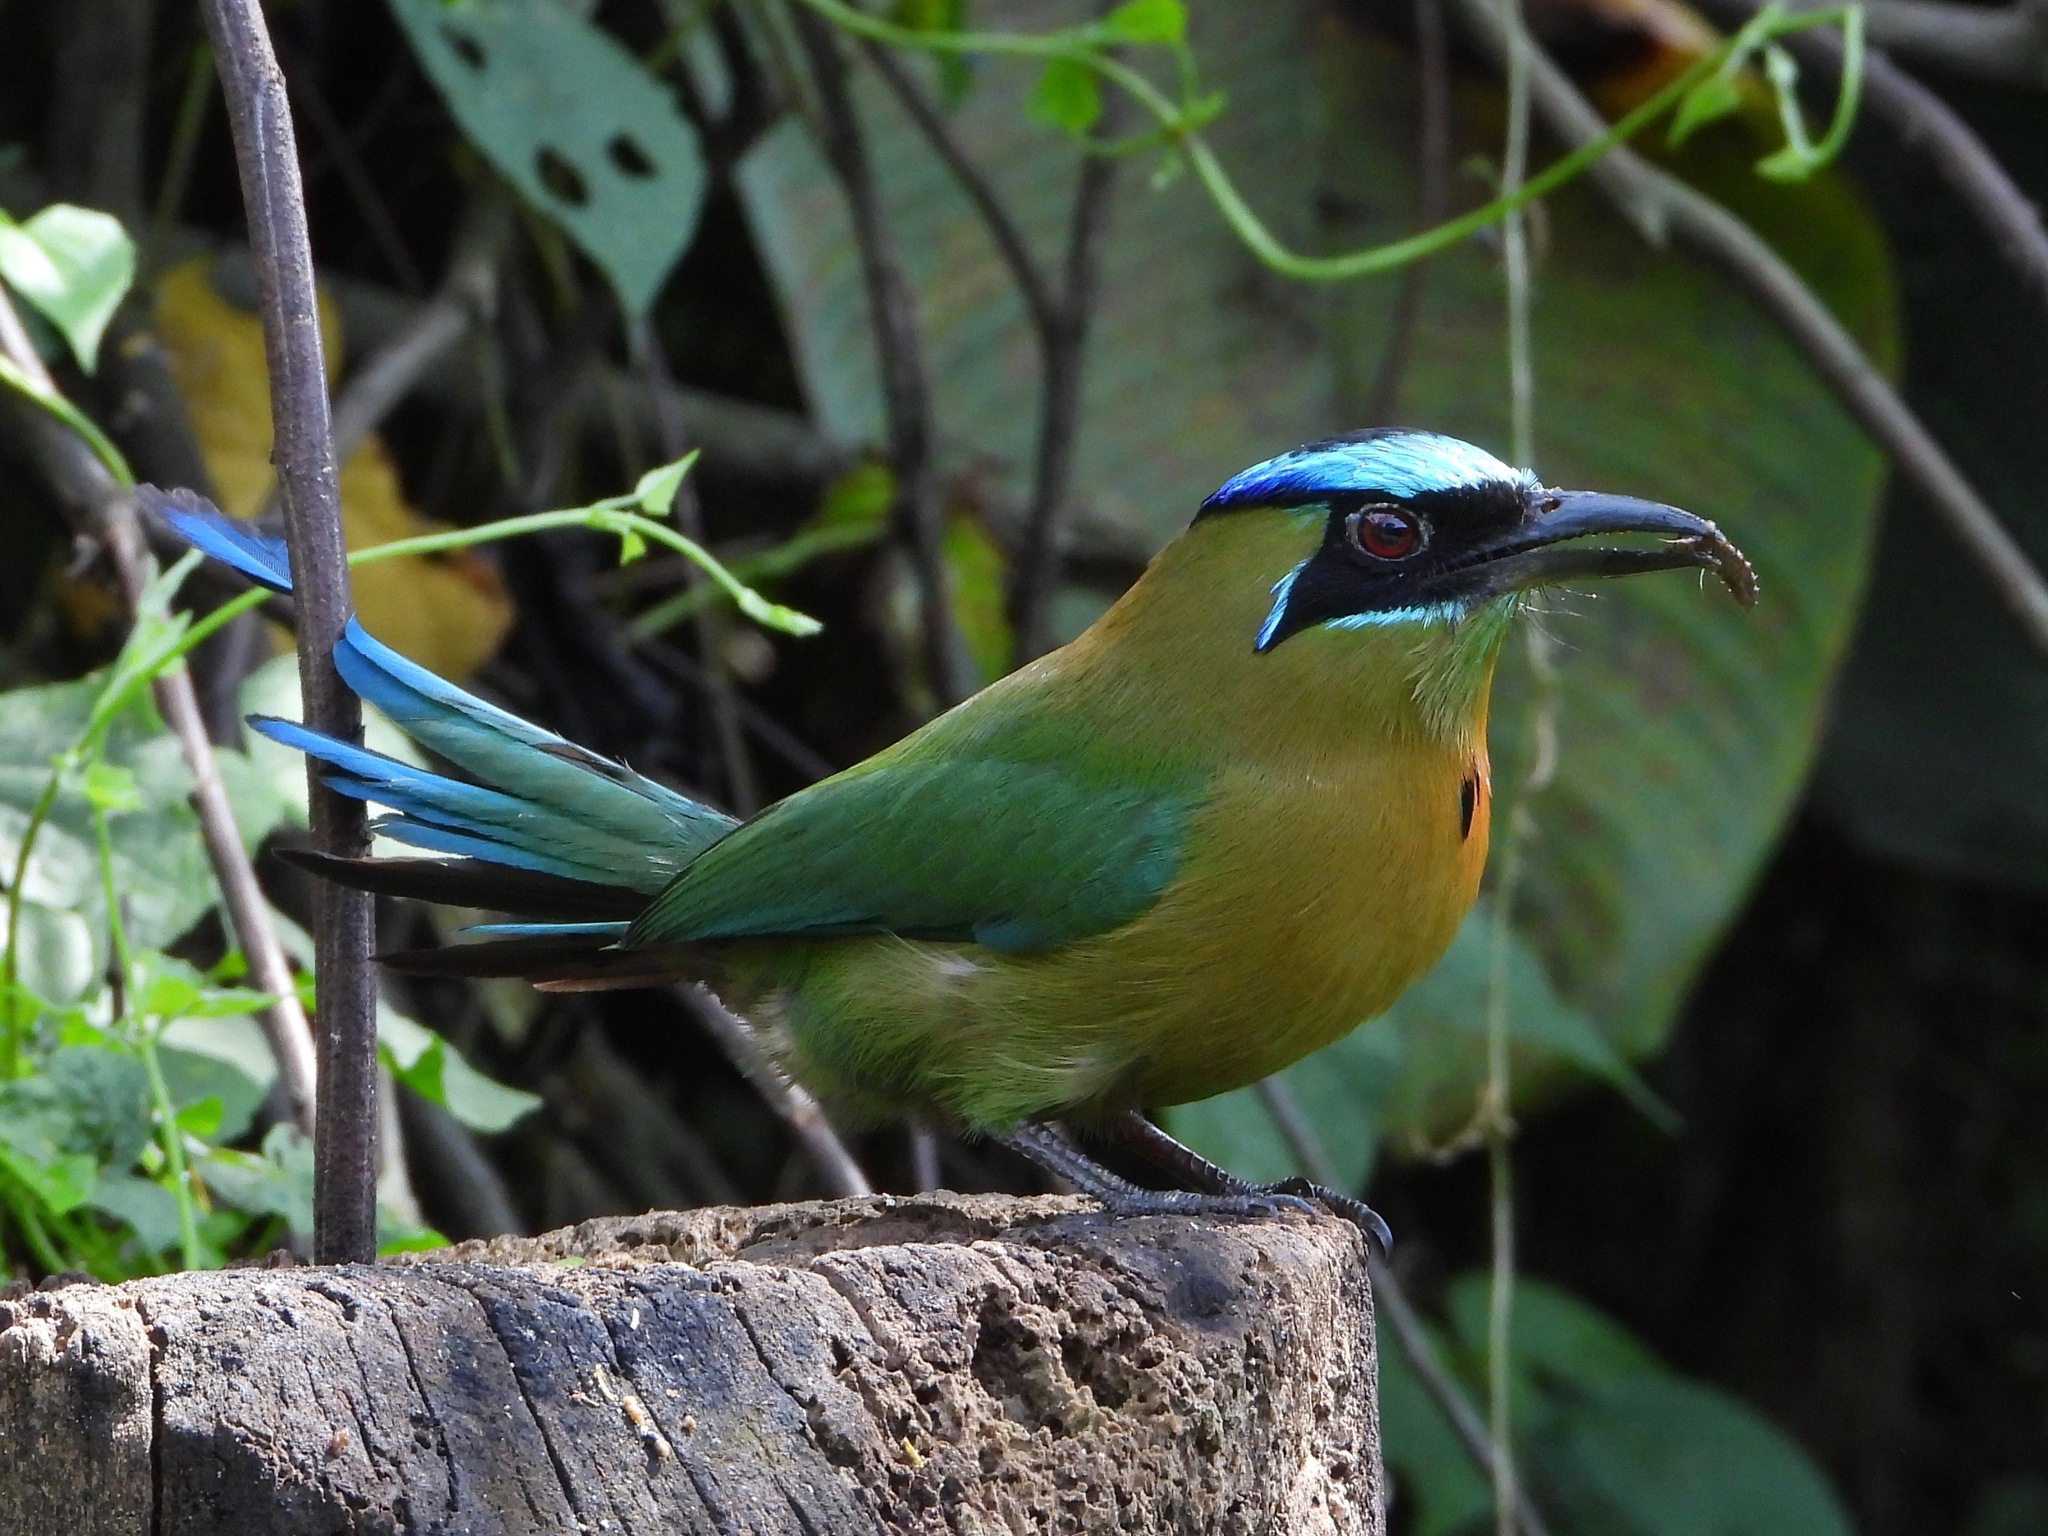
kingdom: Animalia
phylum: Chordata
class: Aves
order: Coraciiformes
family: Momotidae
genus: Momotus
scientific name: Momotus lessonii
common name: Lesson's motmot
